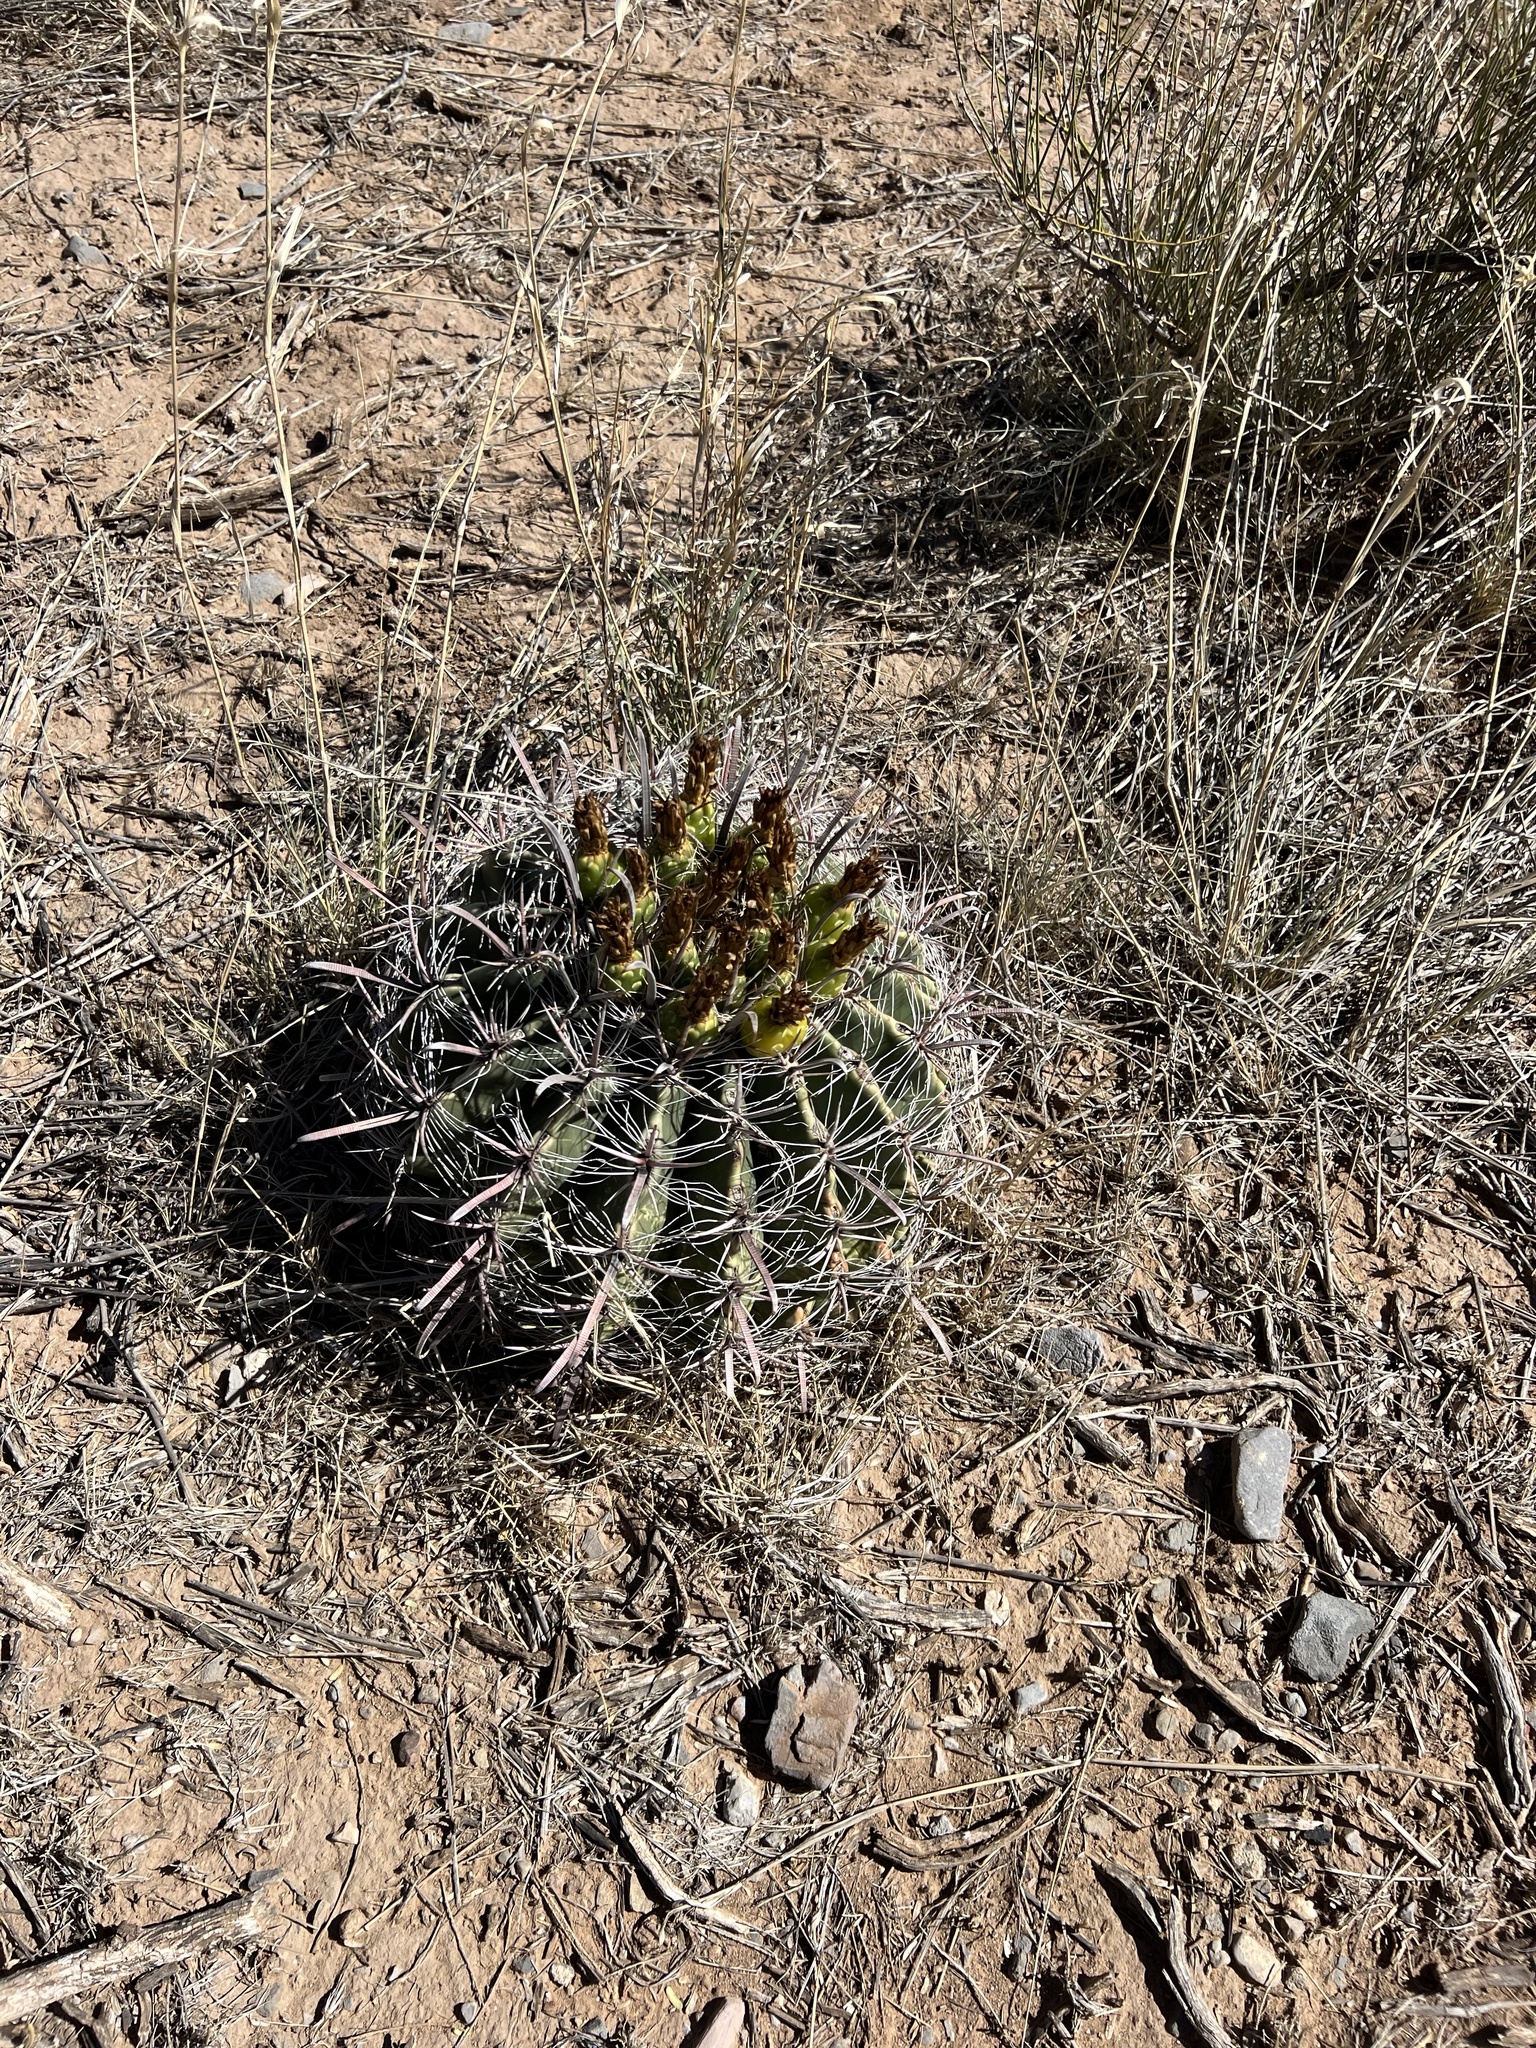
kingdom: Plantae
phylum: Tracheophyta
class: Magnoliopsida
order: Caryophyllales
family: Cactaceae
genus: Ferocactus
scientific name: Ferocactus wislizeni
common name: Candy barrel cactus
